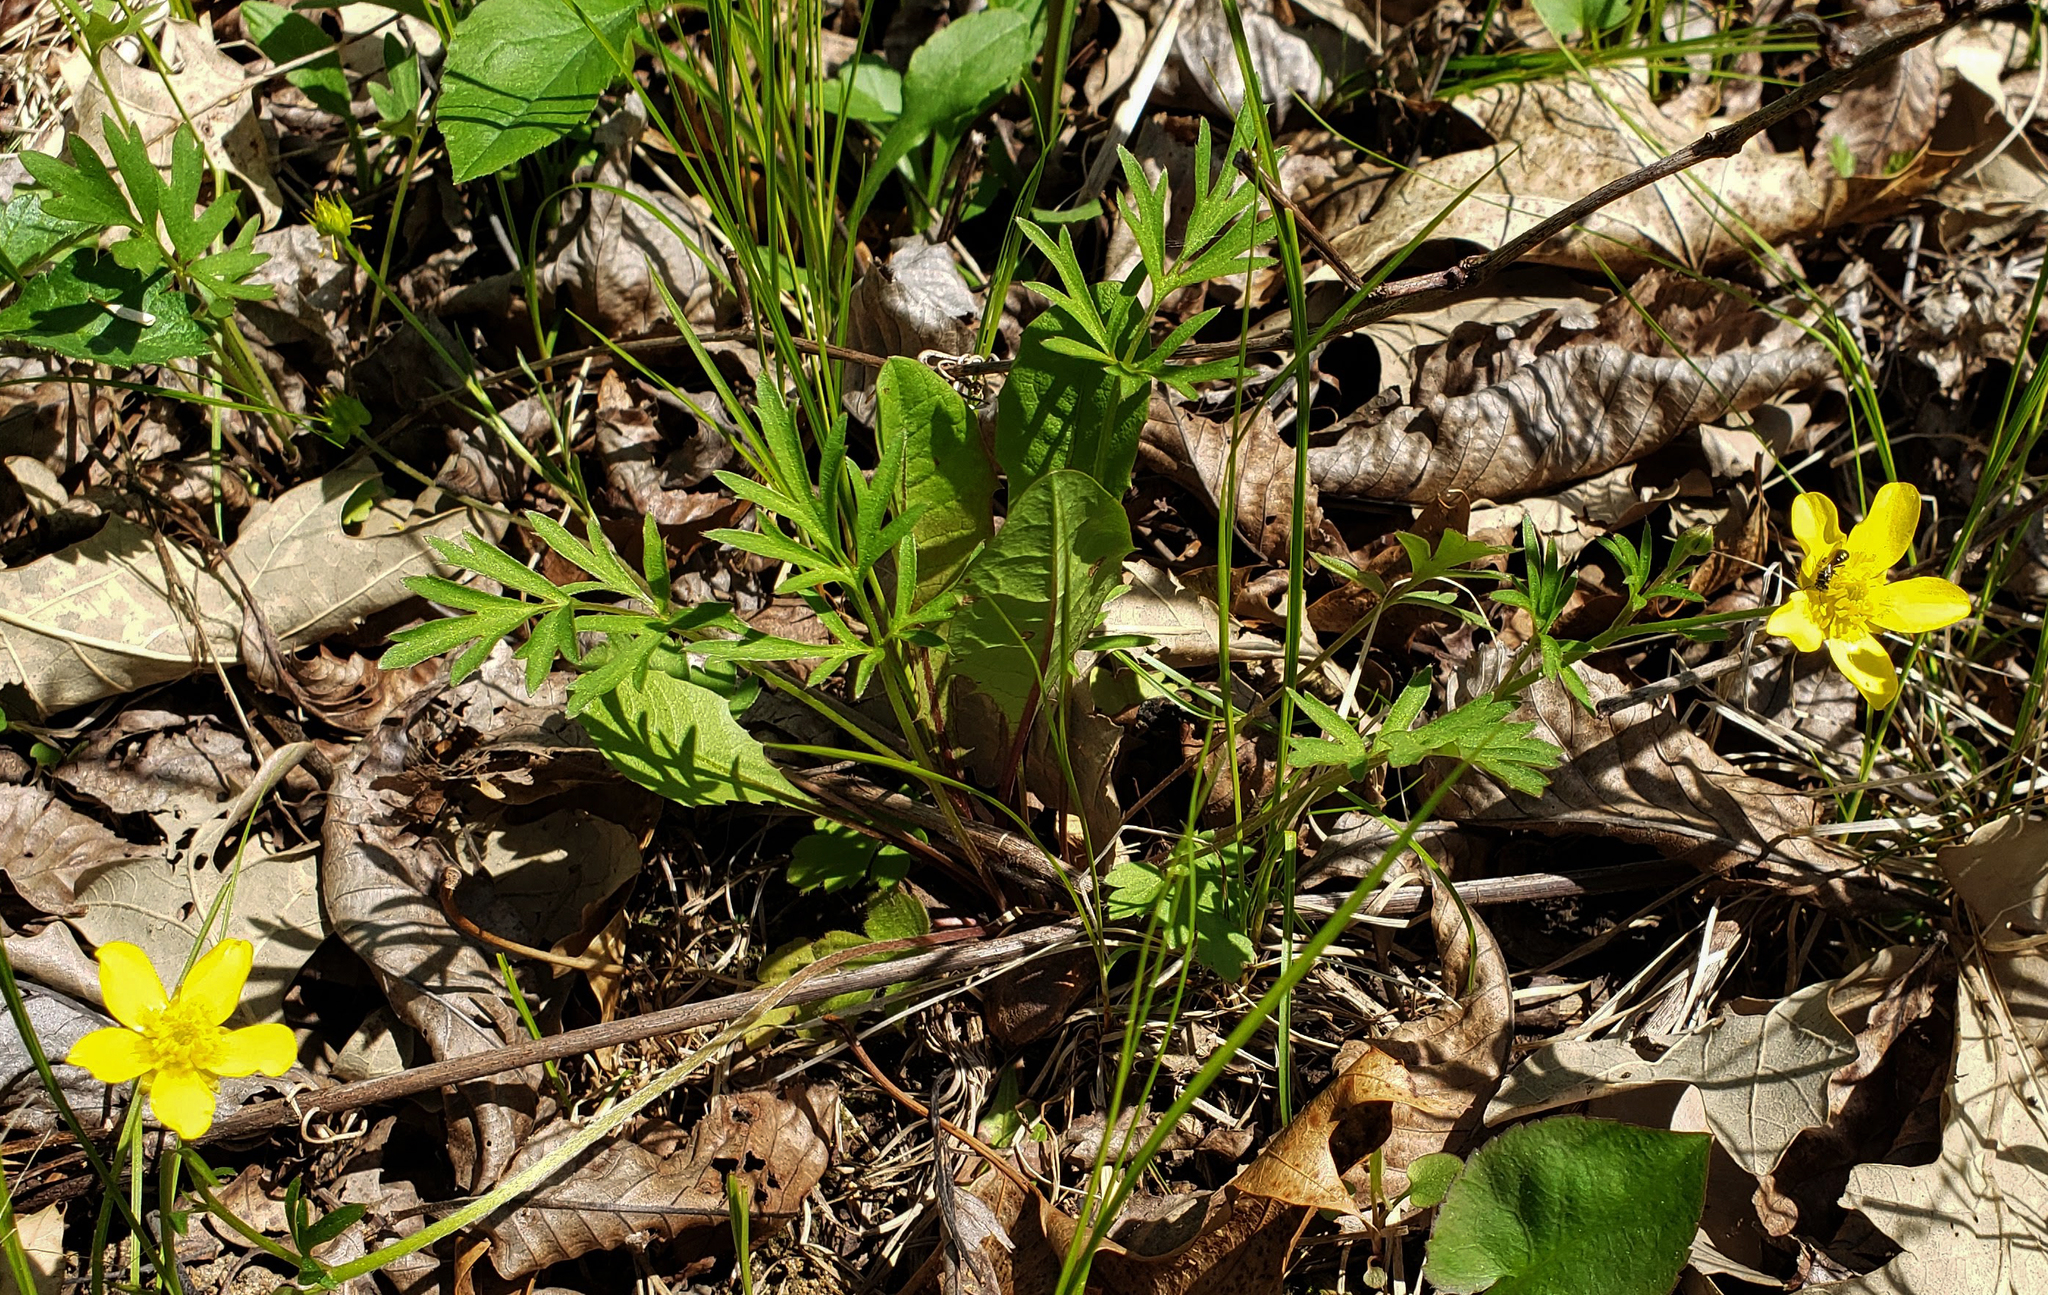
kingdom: Plantae
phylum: Tracheophyta
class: Magnoliopsida
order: Ranunculales
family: Ranunculaceae
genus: Ranunculus
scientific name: Ranunculus fascicularis
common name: Early buttercup
